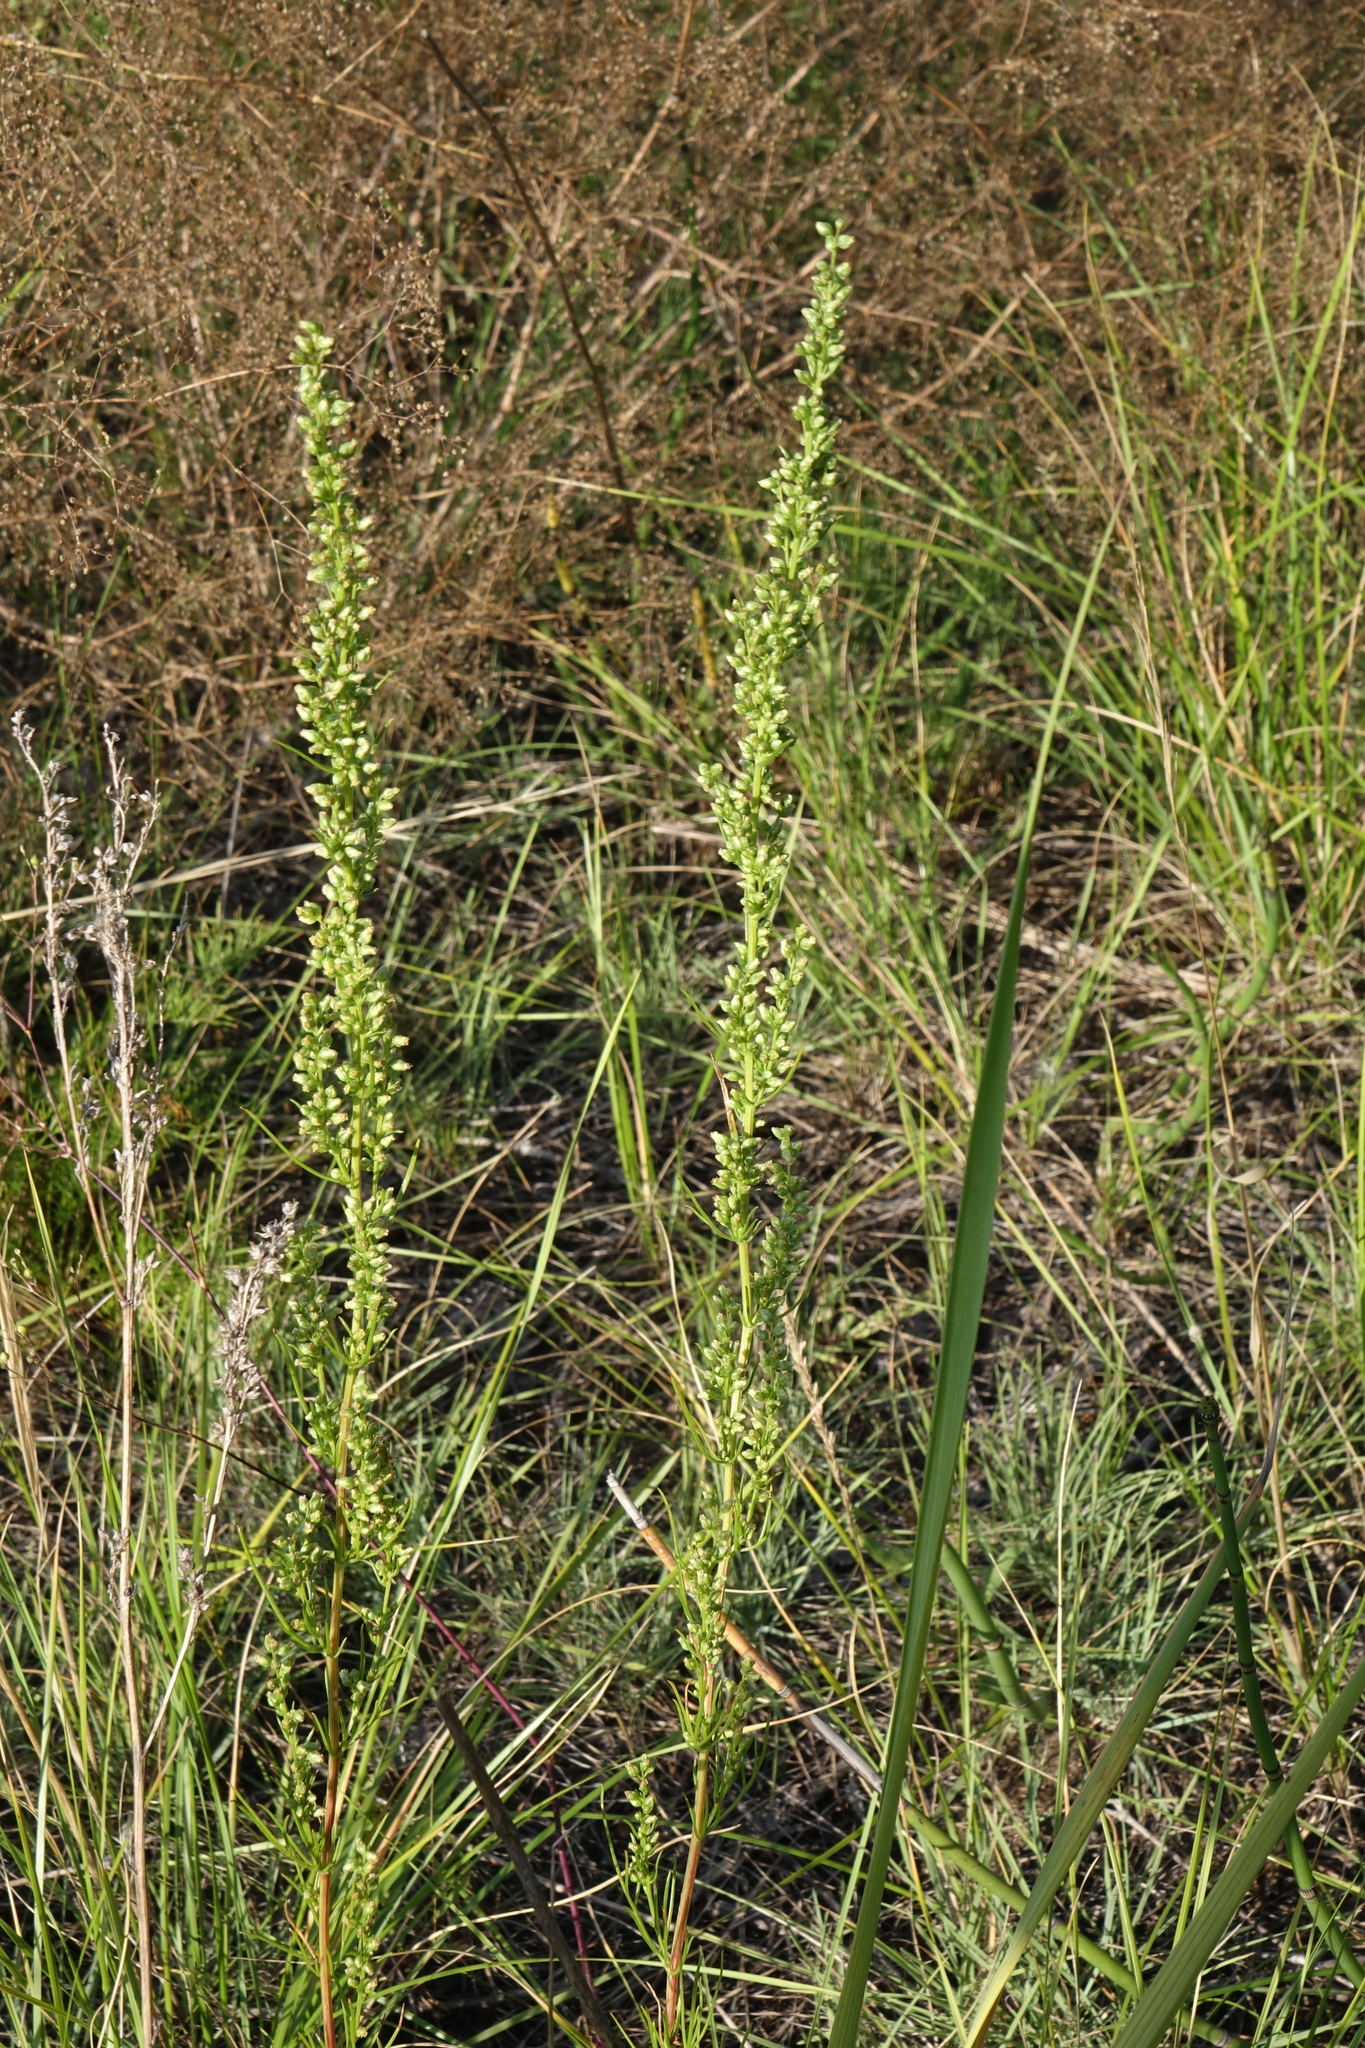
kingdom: Plantae
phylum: Tracheophyta
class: Magnoliopsida
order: Asterales
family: Asteraceae
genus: Artemisia
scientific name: Artemisia pubescens
